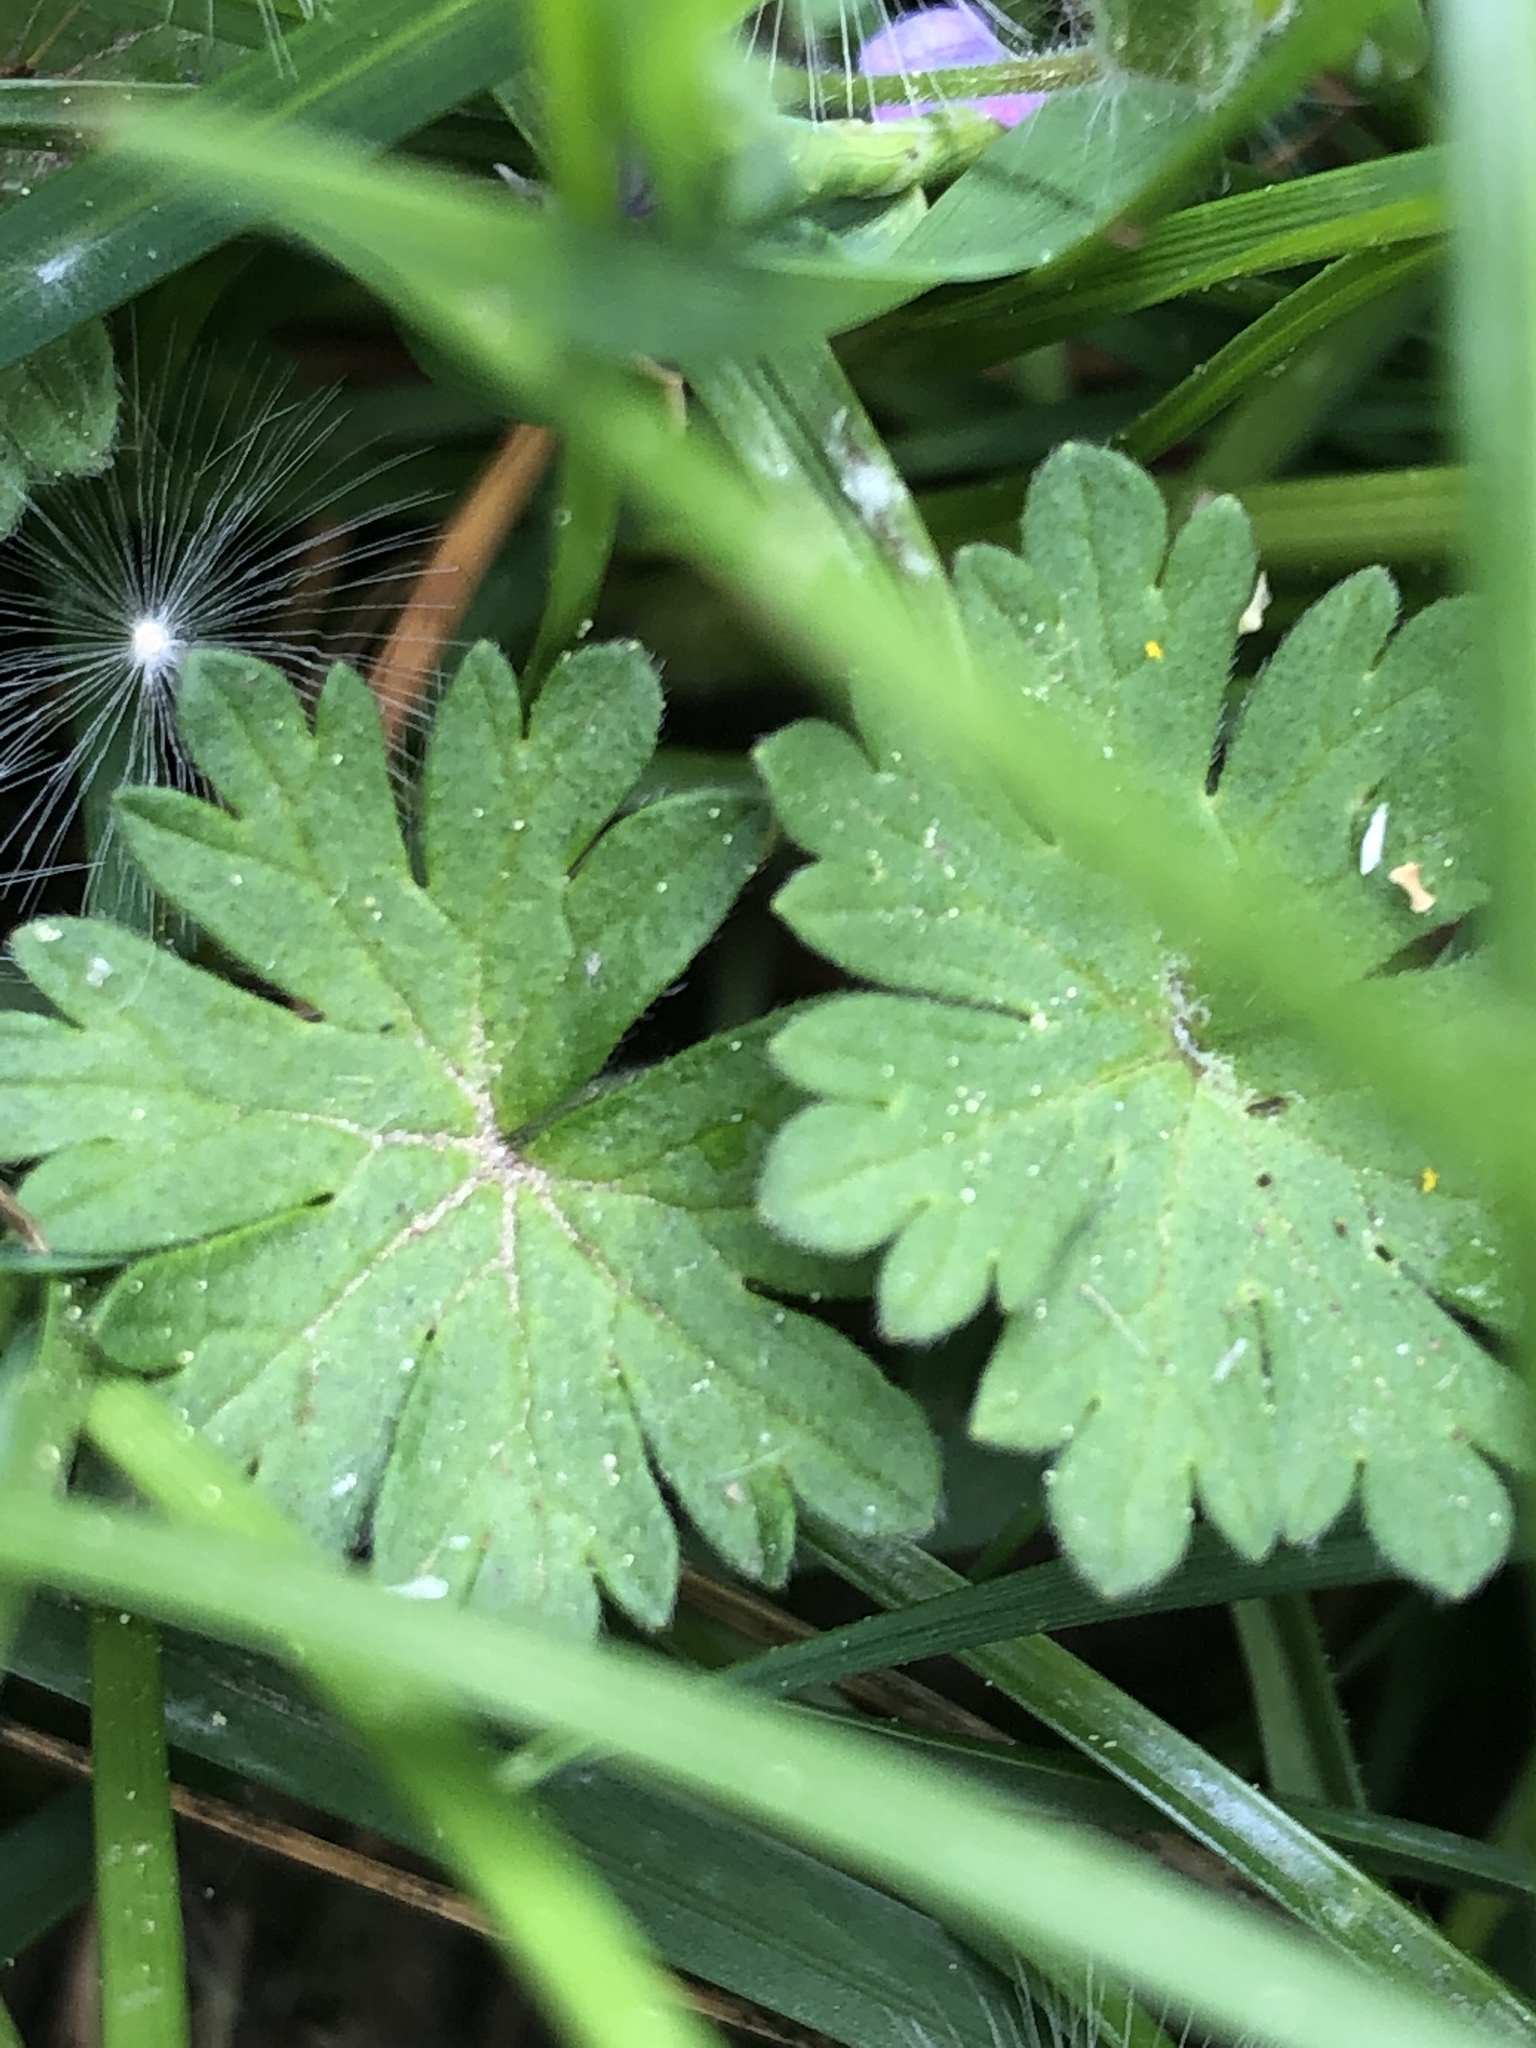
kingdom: Plantae
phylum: Tracheophyta
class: Magnoliopsida
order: Geraniales
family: Geraniaceae
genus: Geranium
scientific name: Geranium molle
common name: Dove's-foot crane's-bill
